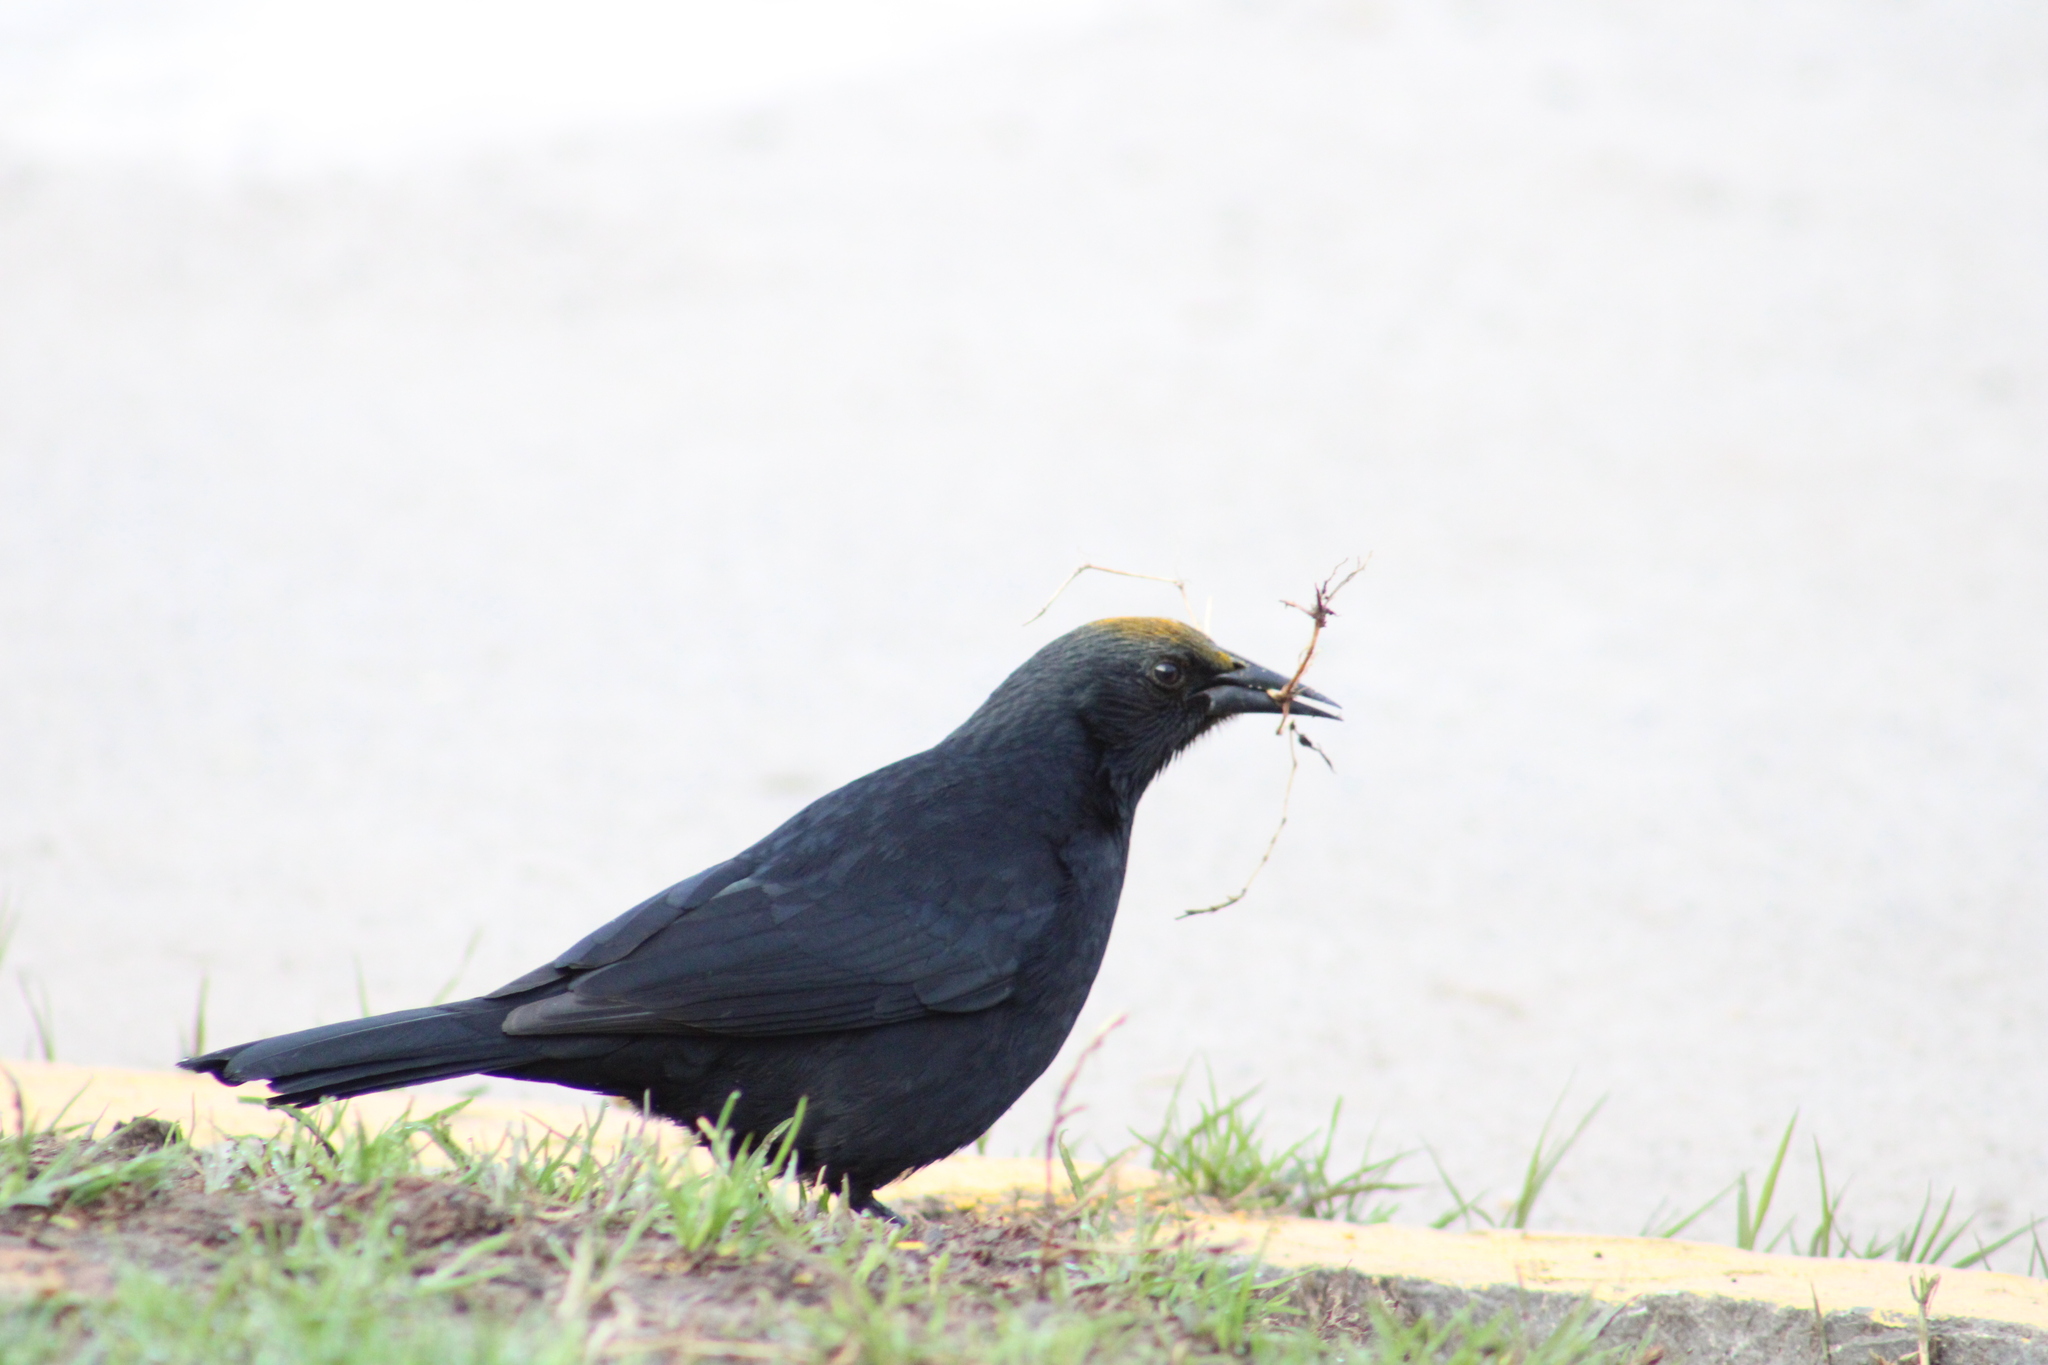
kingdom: Animalia
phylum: Chordata
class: Aves
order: Passeriformes
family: Icteridae
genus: Curaeus
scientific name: Curaeus curaeus
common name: Austral blackbird
